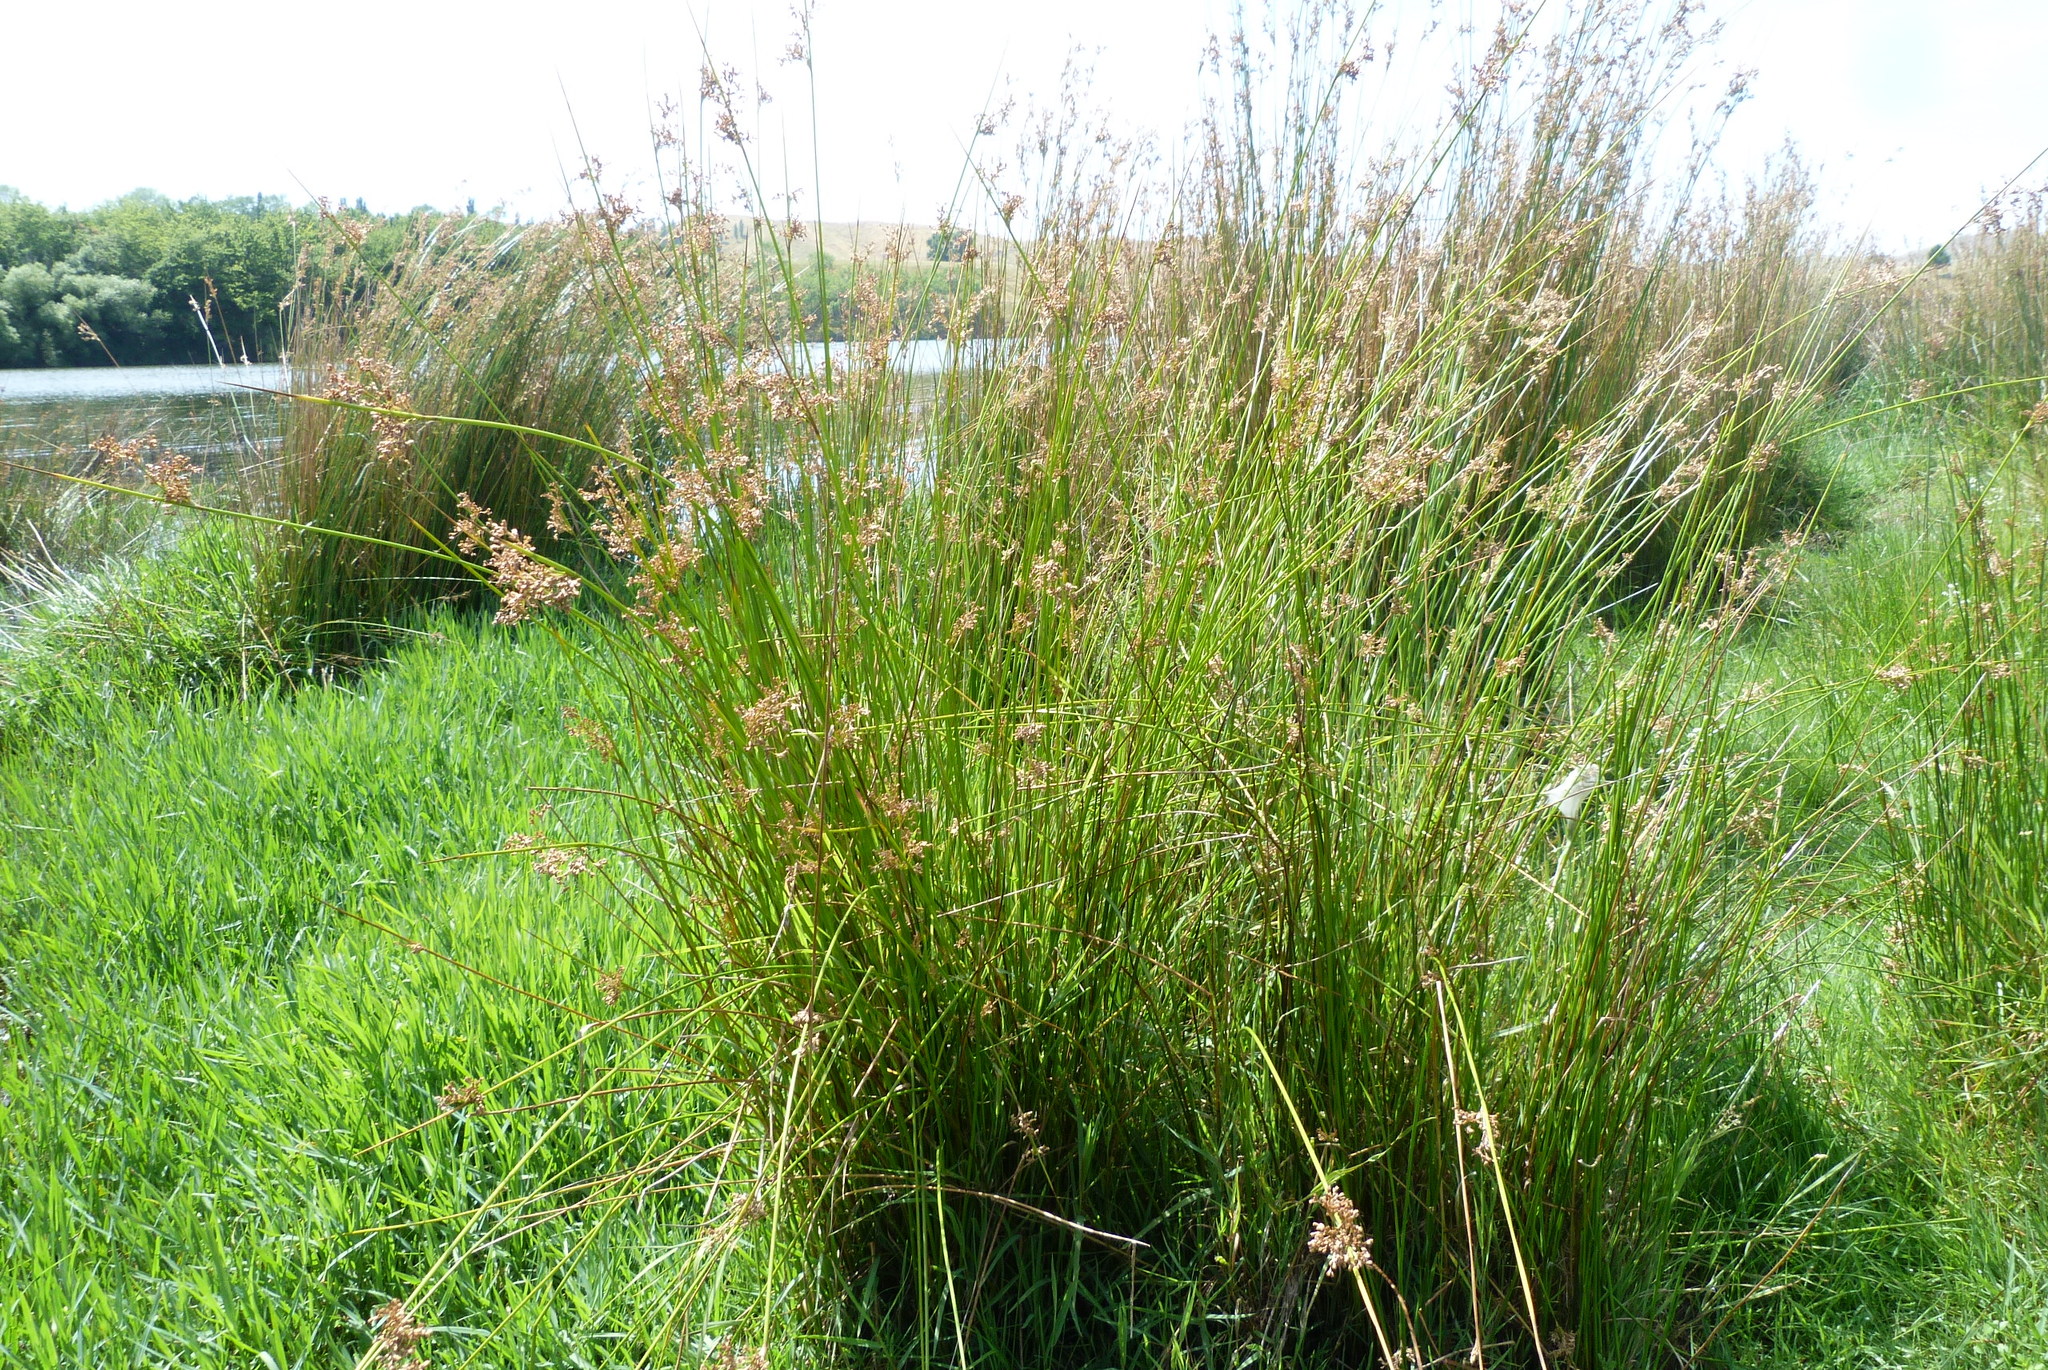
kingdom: Plantae
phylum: Tracheophyta
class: Liliopsida
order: Poales
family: Juncaceae
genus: Juncus
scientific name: Juncus edgariae
